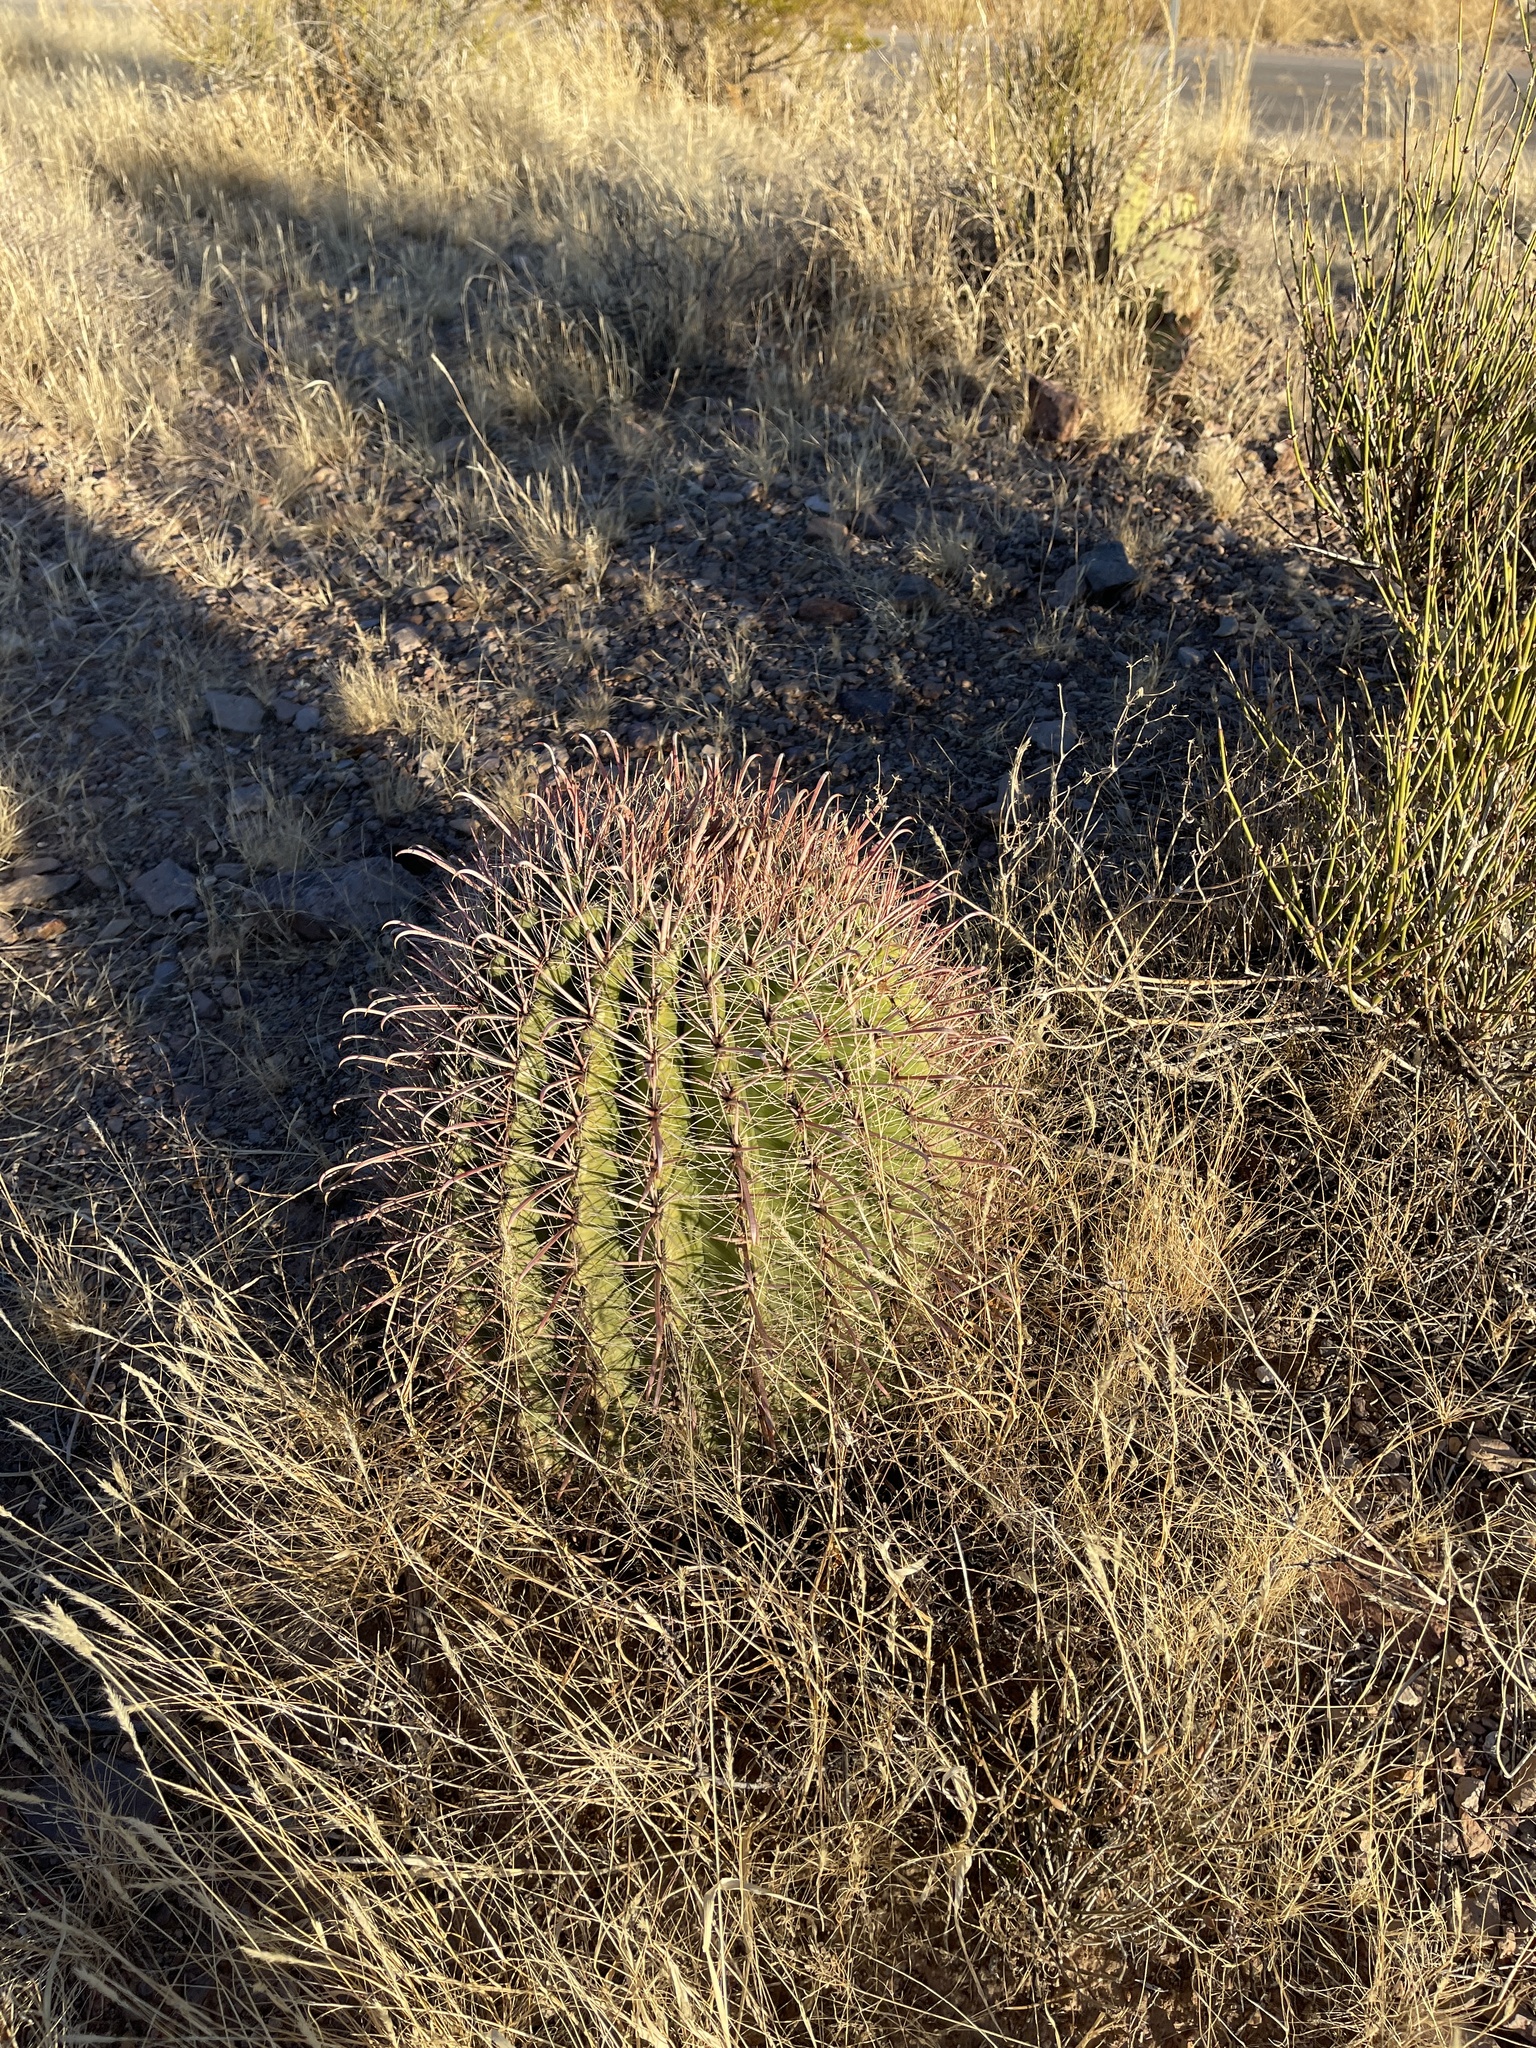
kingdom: Plantae
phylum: Tracheophyta
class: Magnoliopsida
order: Caryophyllales
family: Cactaceae
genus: Ferocactus
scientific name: Ferocactus wislizeni
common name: Candy barrel cactus
